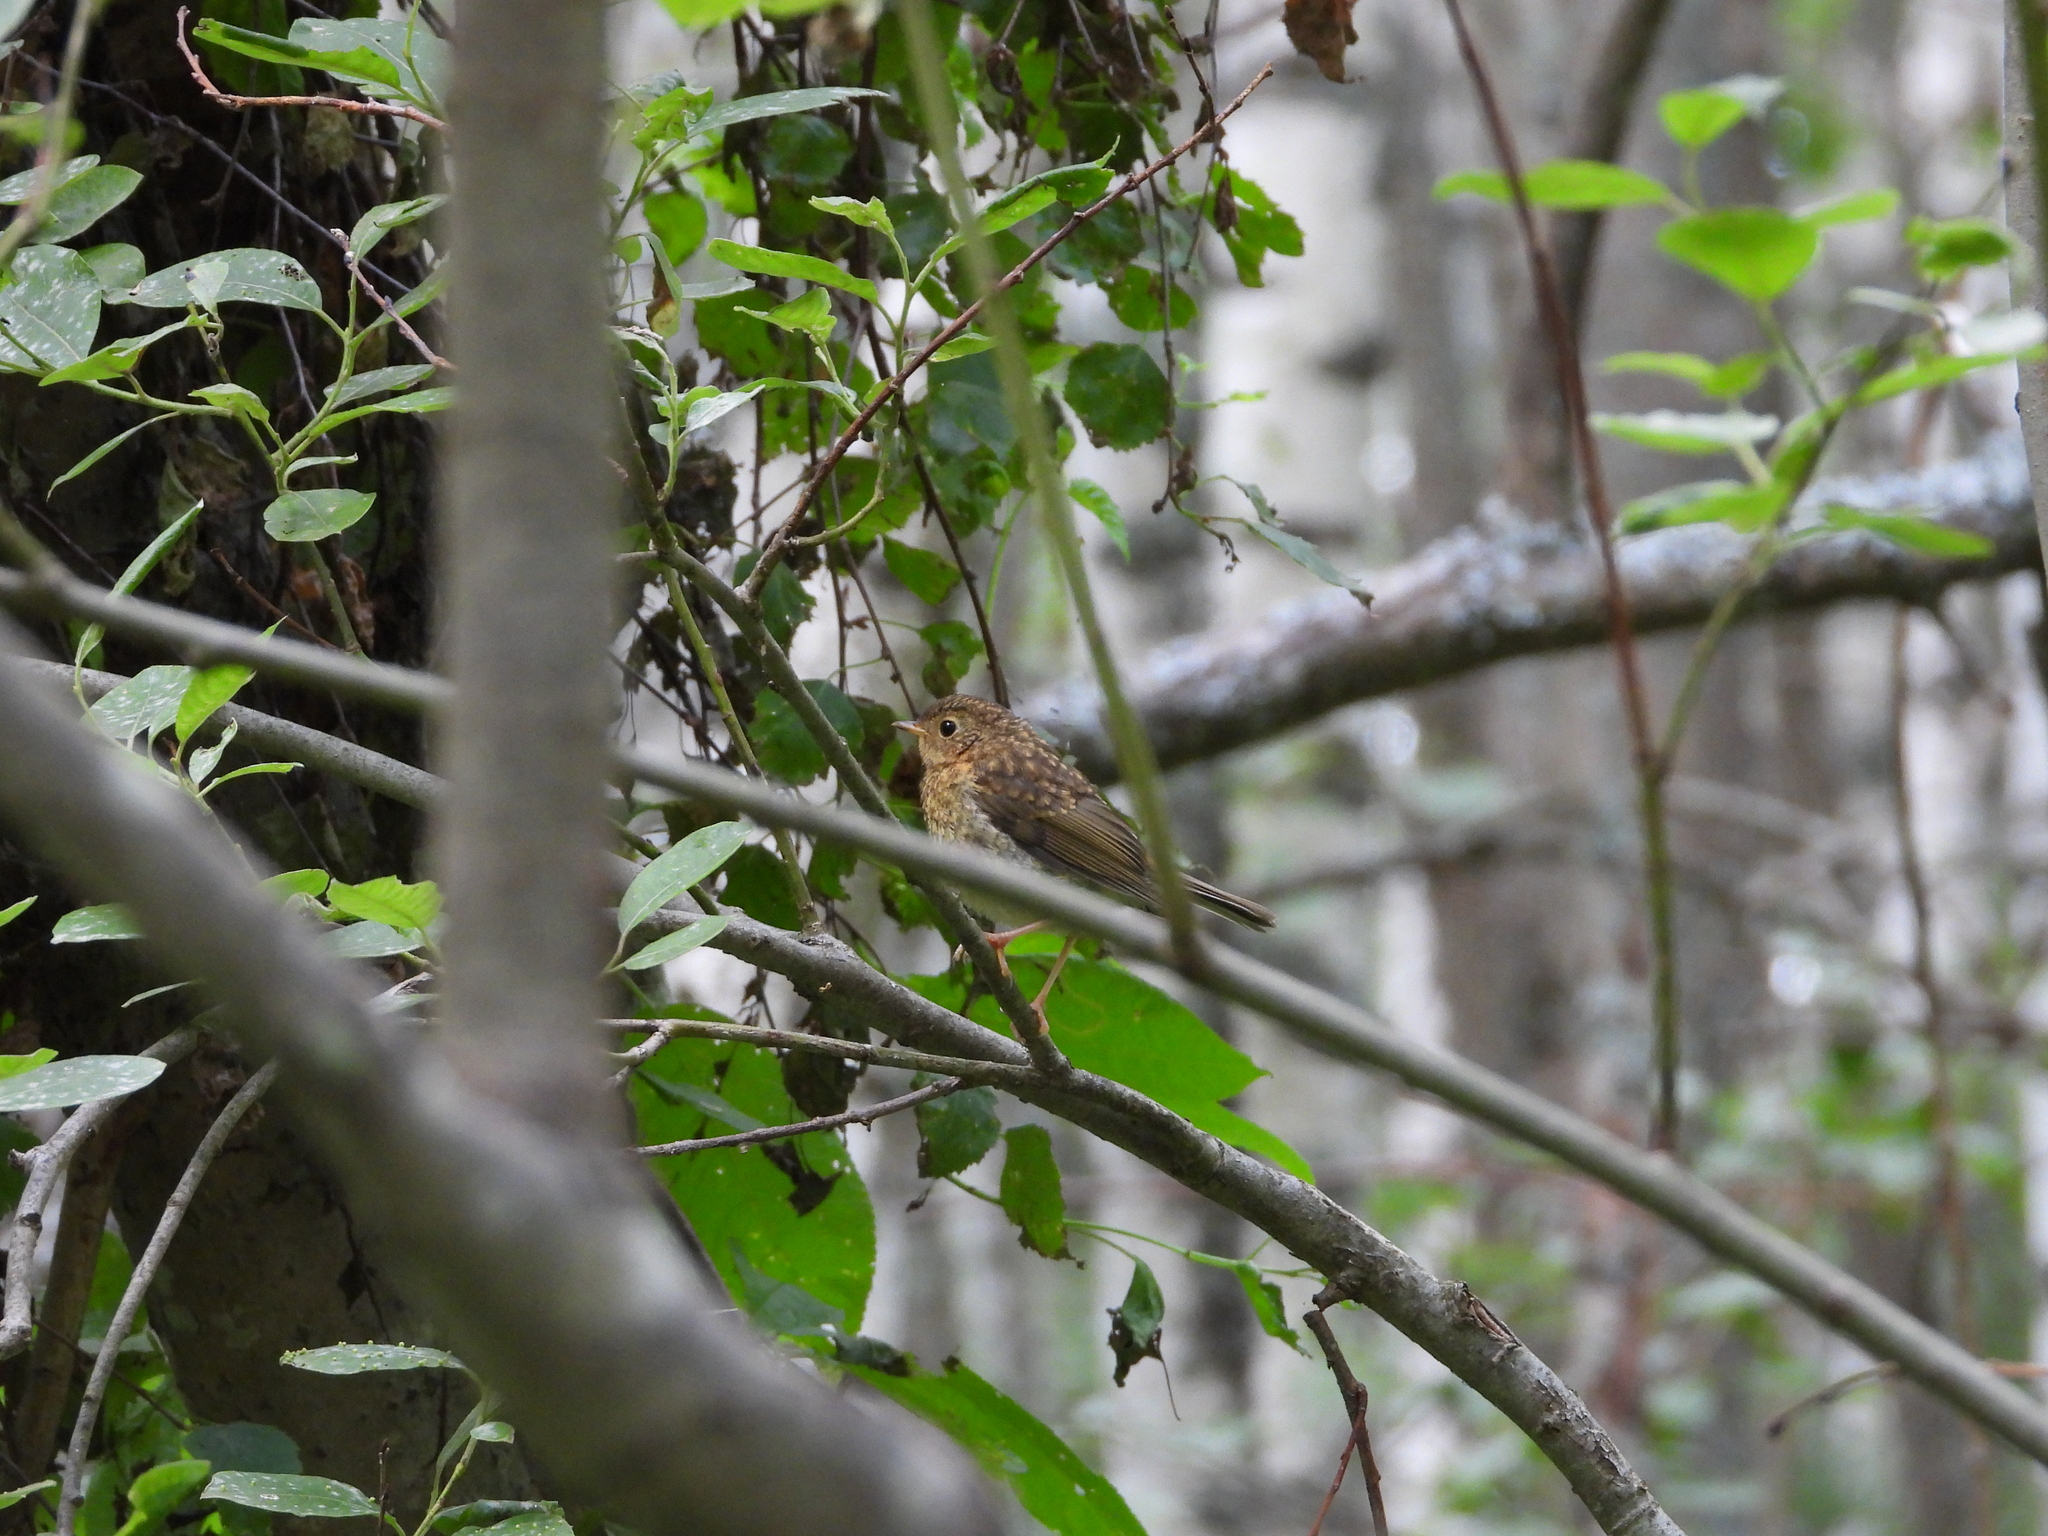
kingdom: Animalia
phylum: Chordata
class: Aves
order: Passeriformes
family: Muscicapidae
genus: Erithacus
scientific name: Erithacus rubecula
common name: European robin
